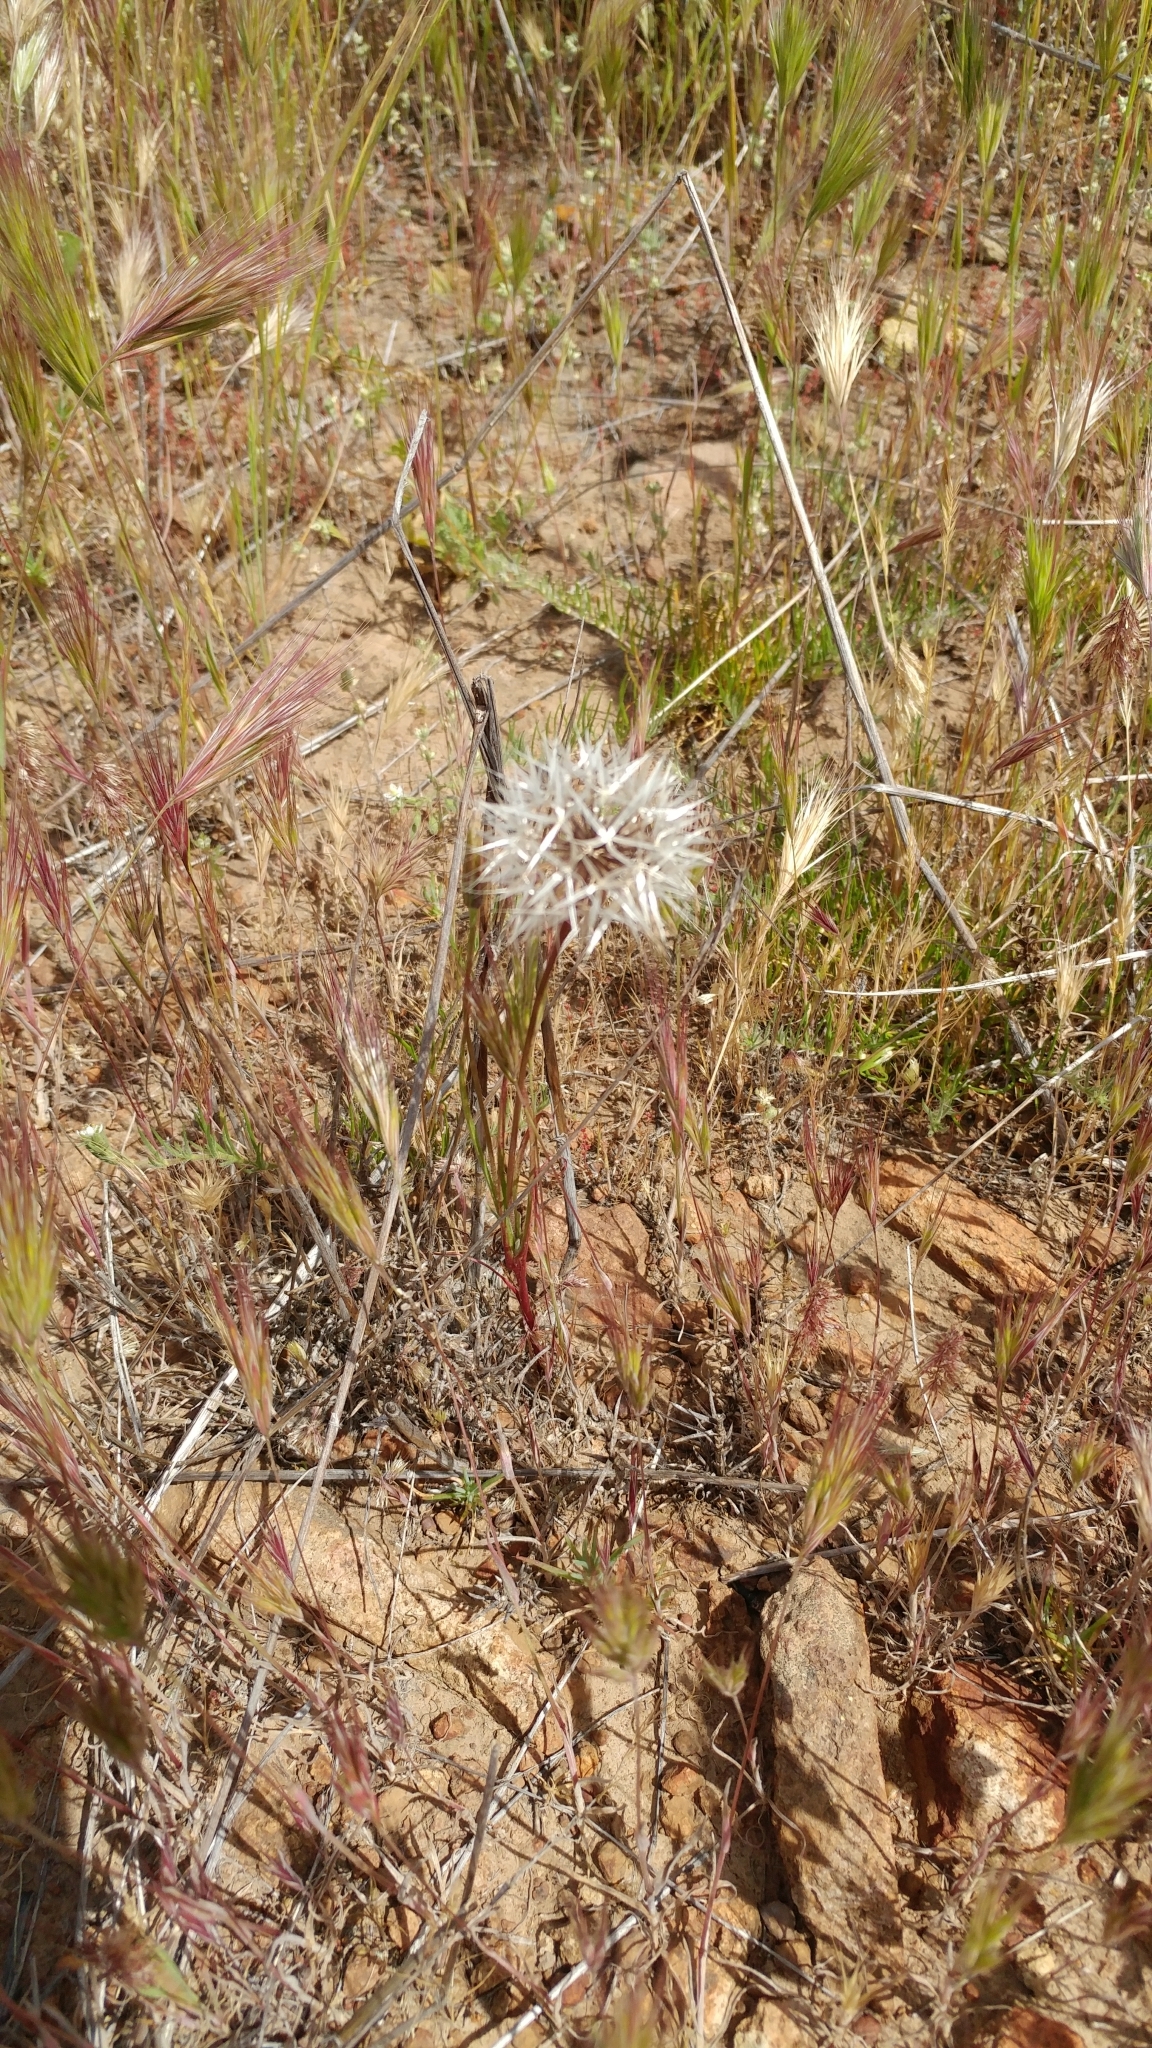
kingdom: Plantae
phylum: Tracheophyta
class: Magnoliopsida
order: Asterales
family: Asteraceae
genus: Microseris
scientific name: Microseris lindleyi
